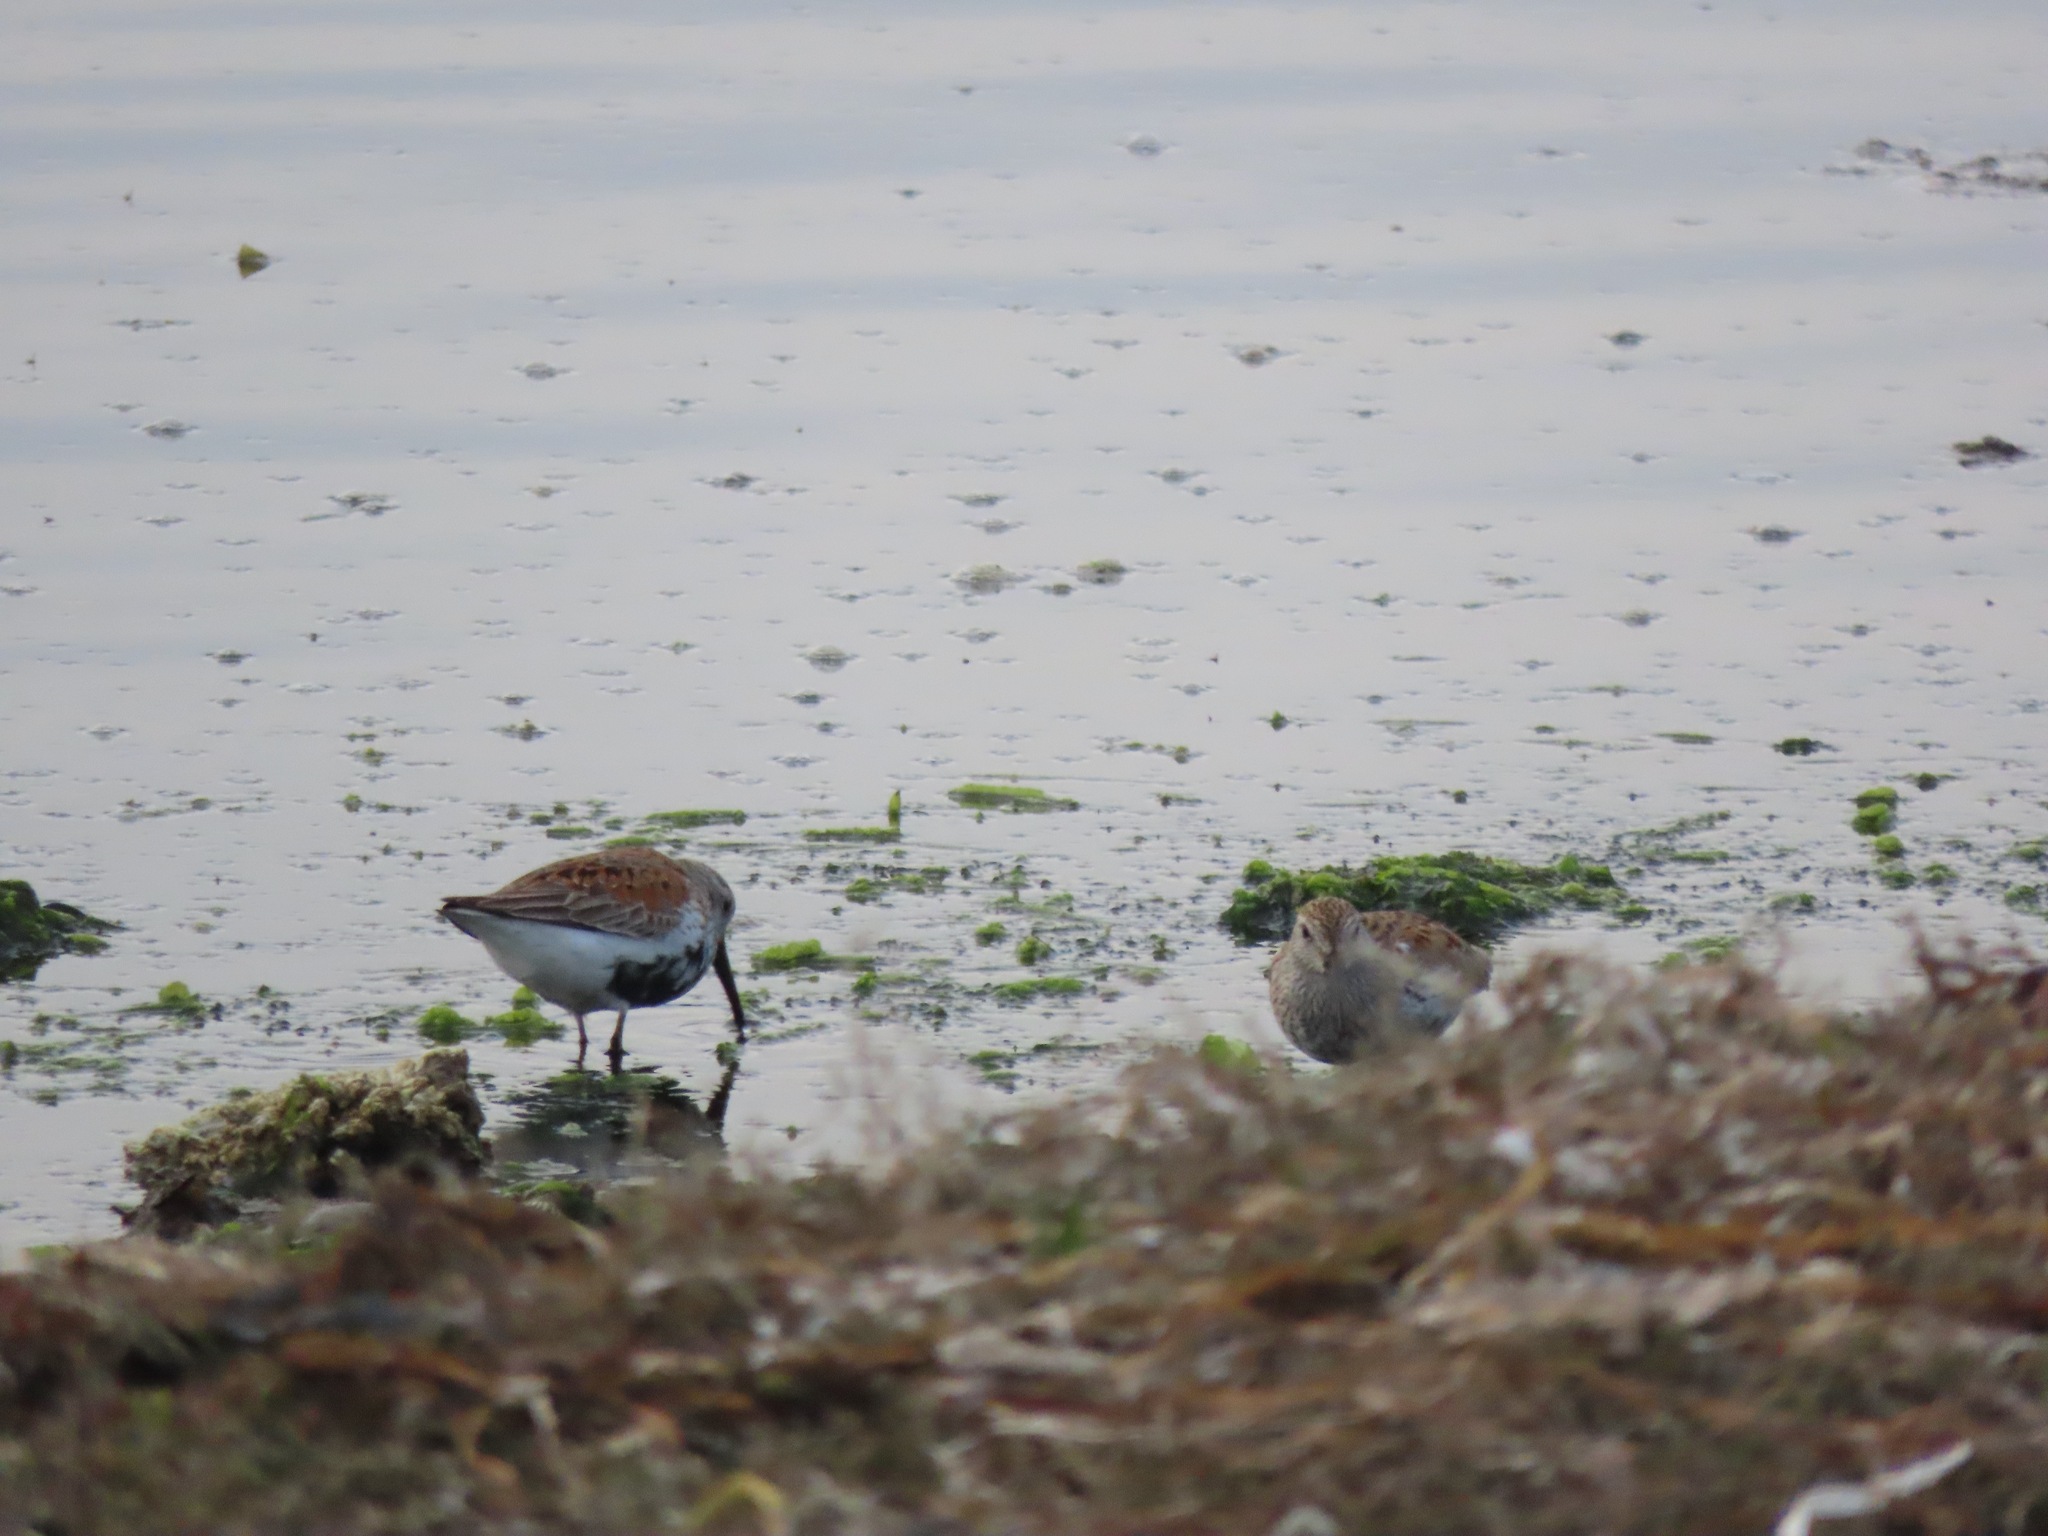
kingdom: Animalia
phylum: Chordata
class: Aves
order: Charadriiformes
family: Scolopacidae
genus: Calidris
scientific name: Calidris alpina
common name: Dunlin
